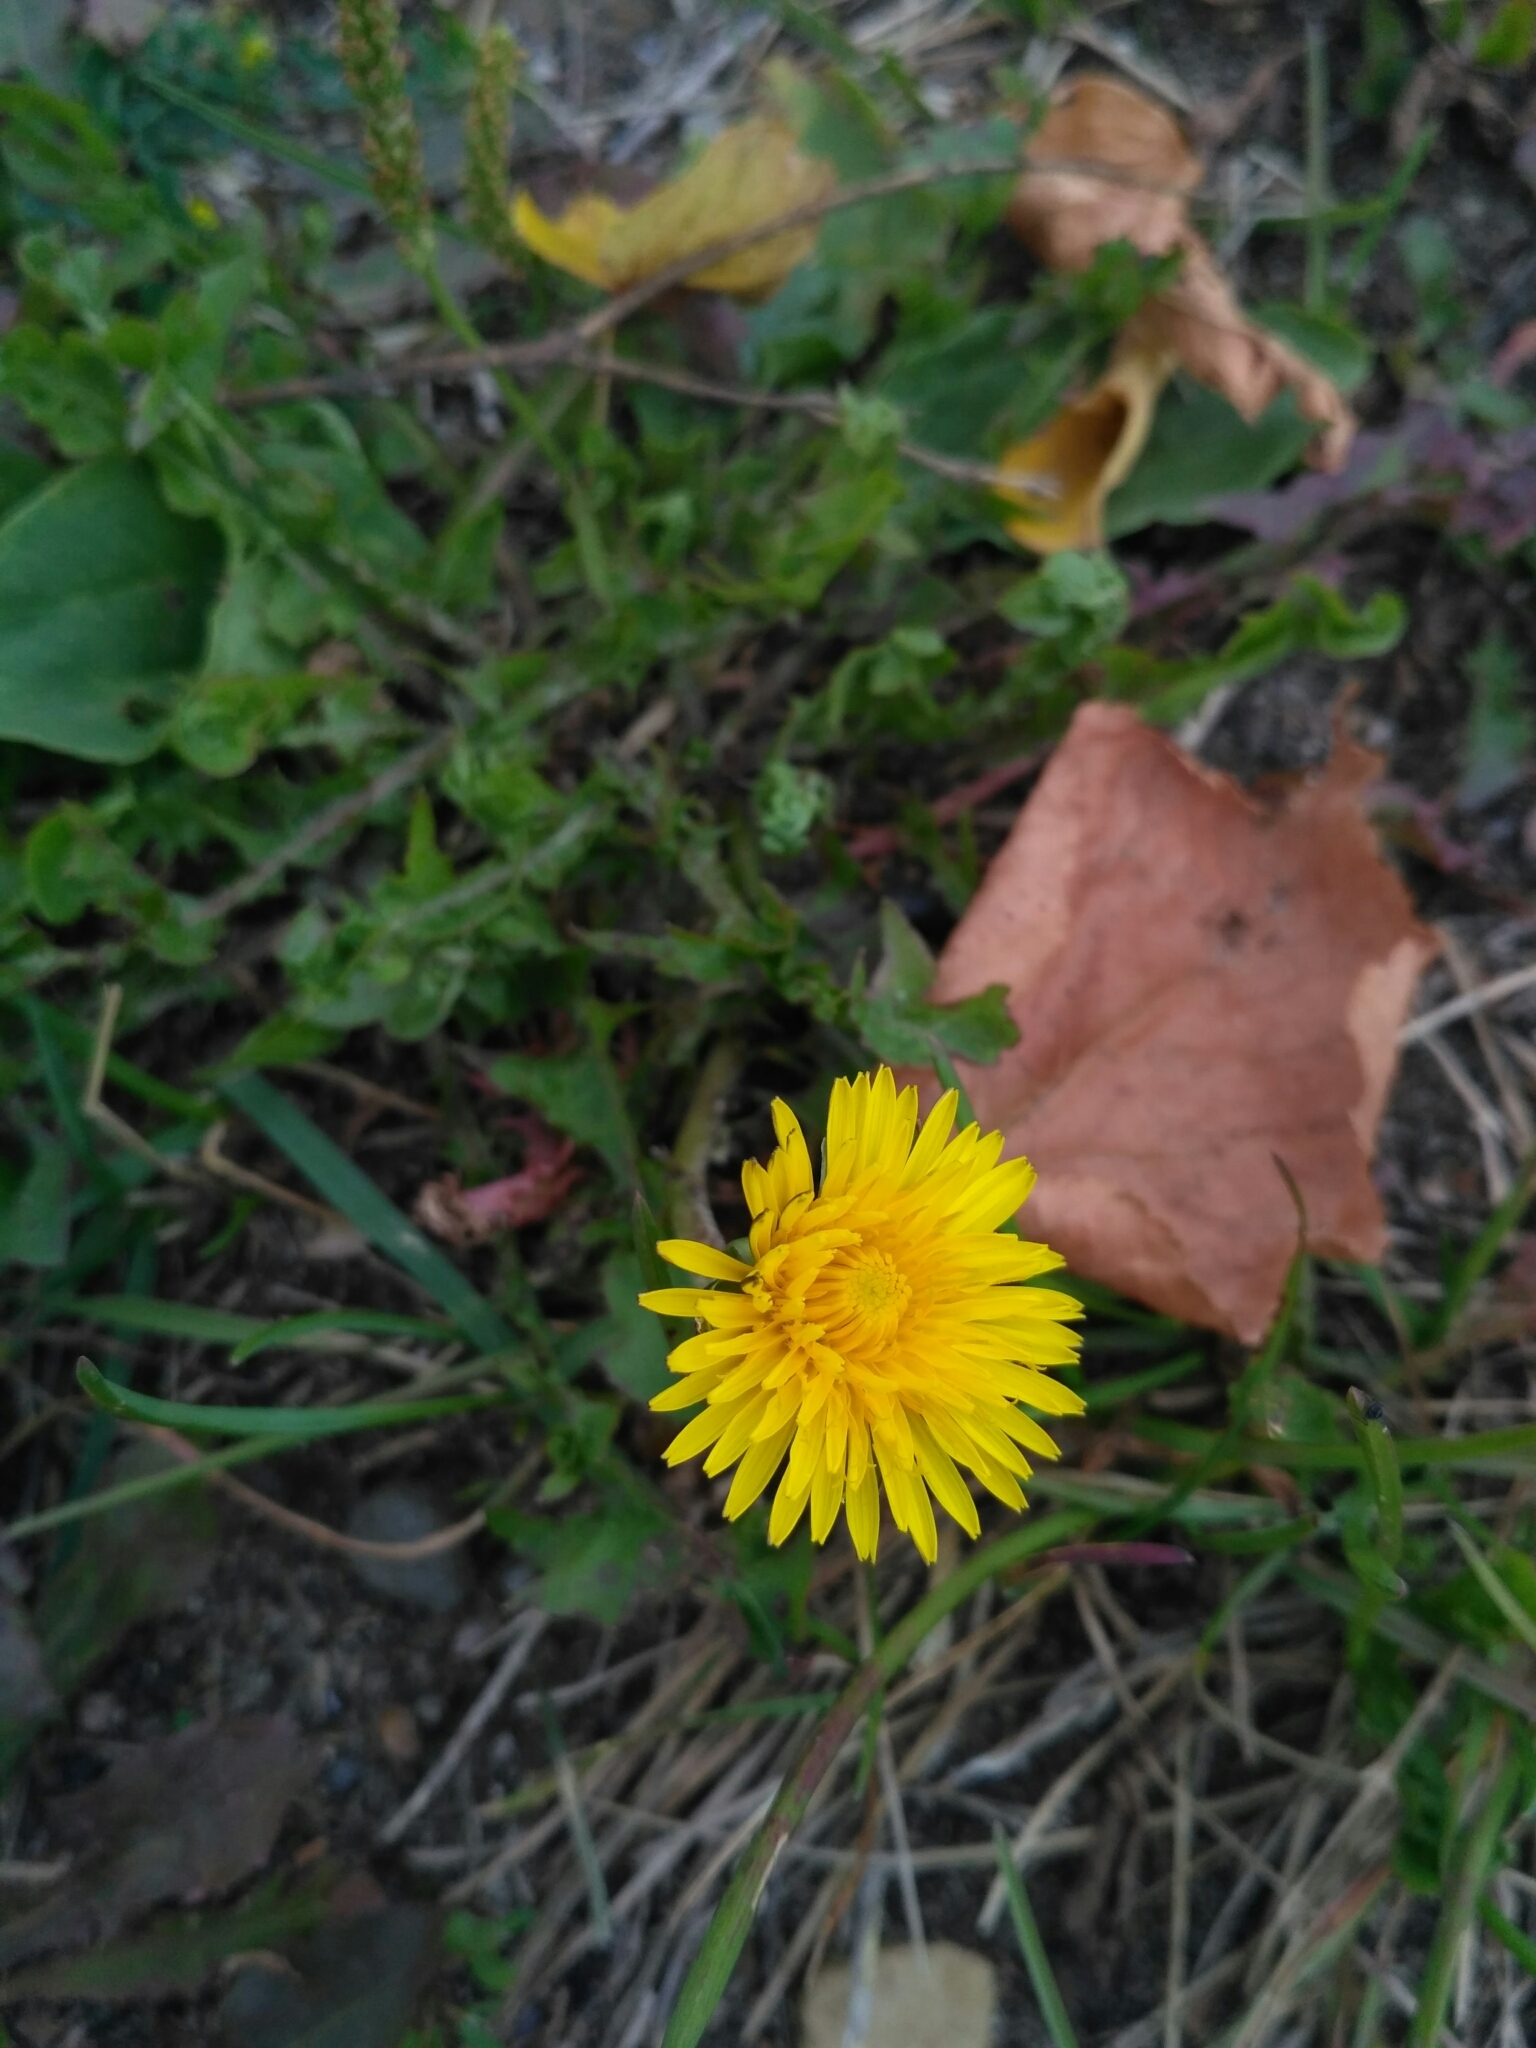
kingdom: Plantae
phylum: Tracheophyta
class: Magnoliopsida
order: Asterales
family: Asteraceae
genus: Taraxacum
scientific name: Taraxacum officinale
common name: Common dandelion
